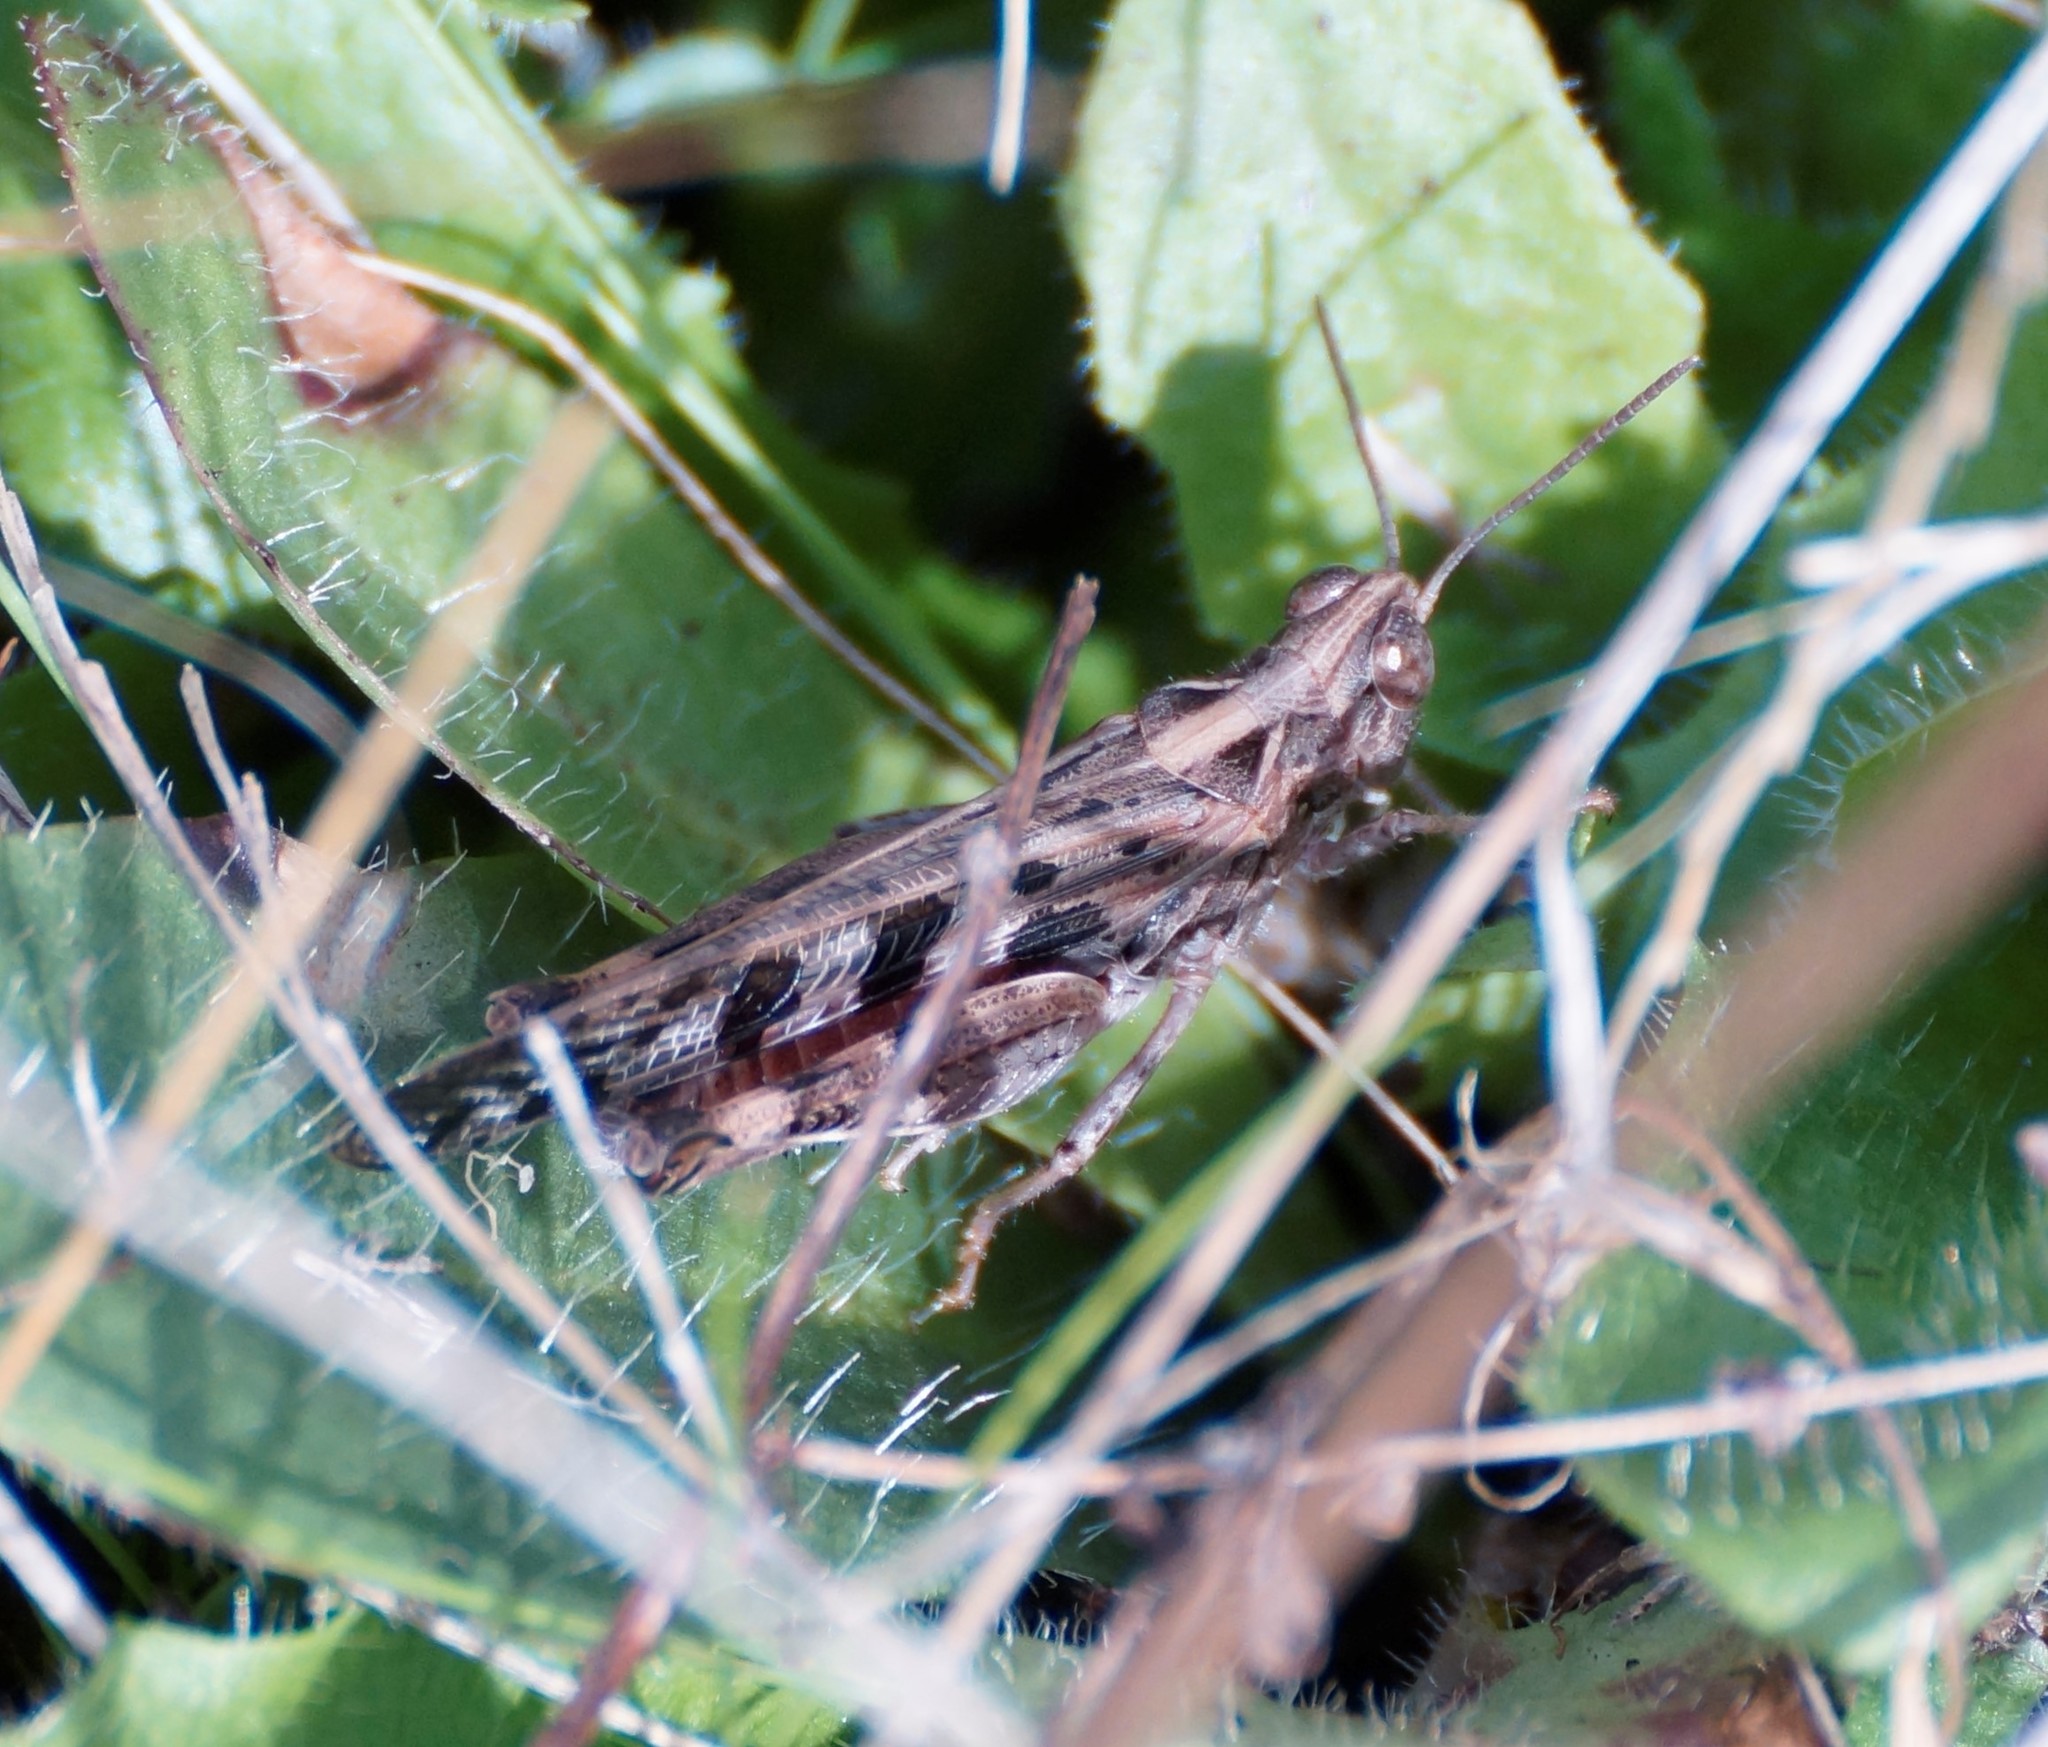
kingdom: Animalia
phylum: Arthropoda
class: Insecta
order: Orthoptera
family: Acrididae
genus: Chortoicetes
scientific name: Chortoicetes terminifera
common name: Australian plague locust
